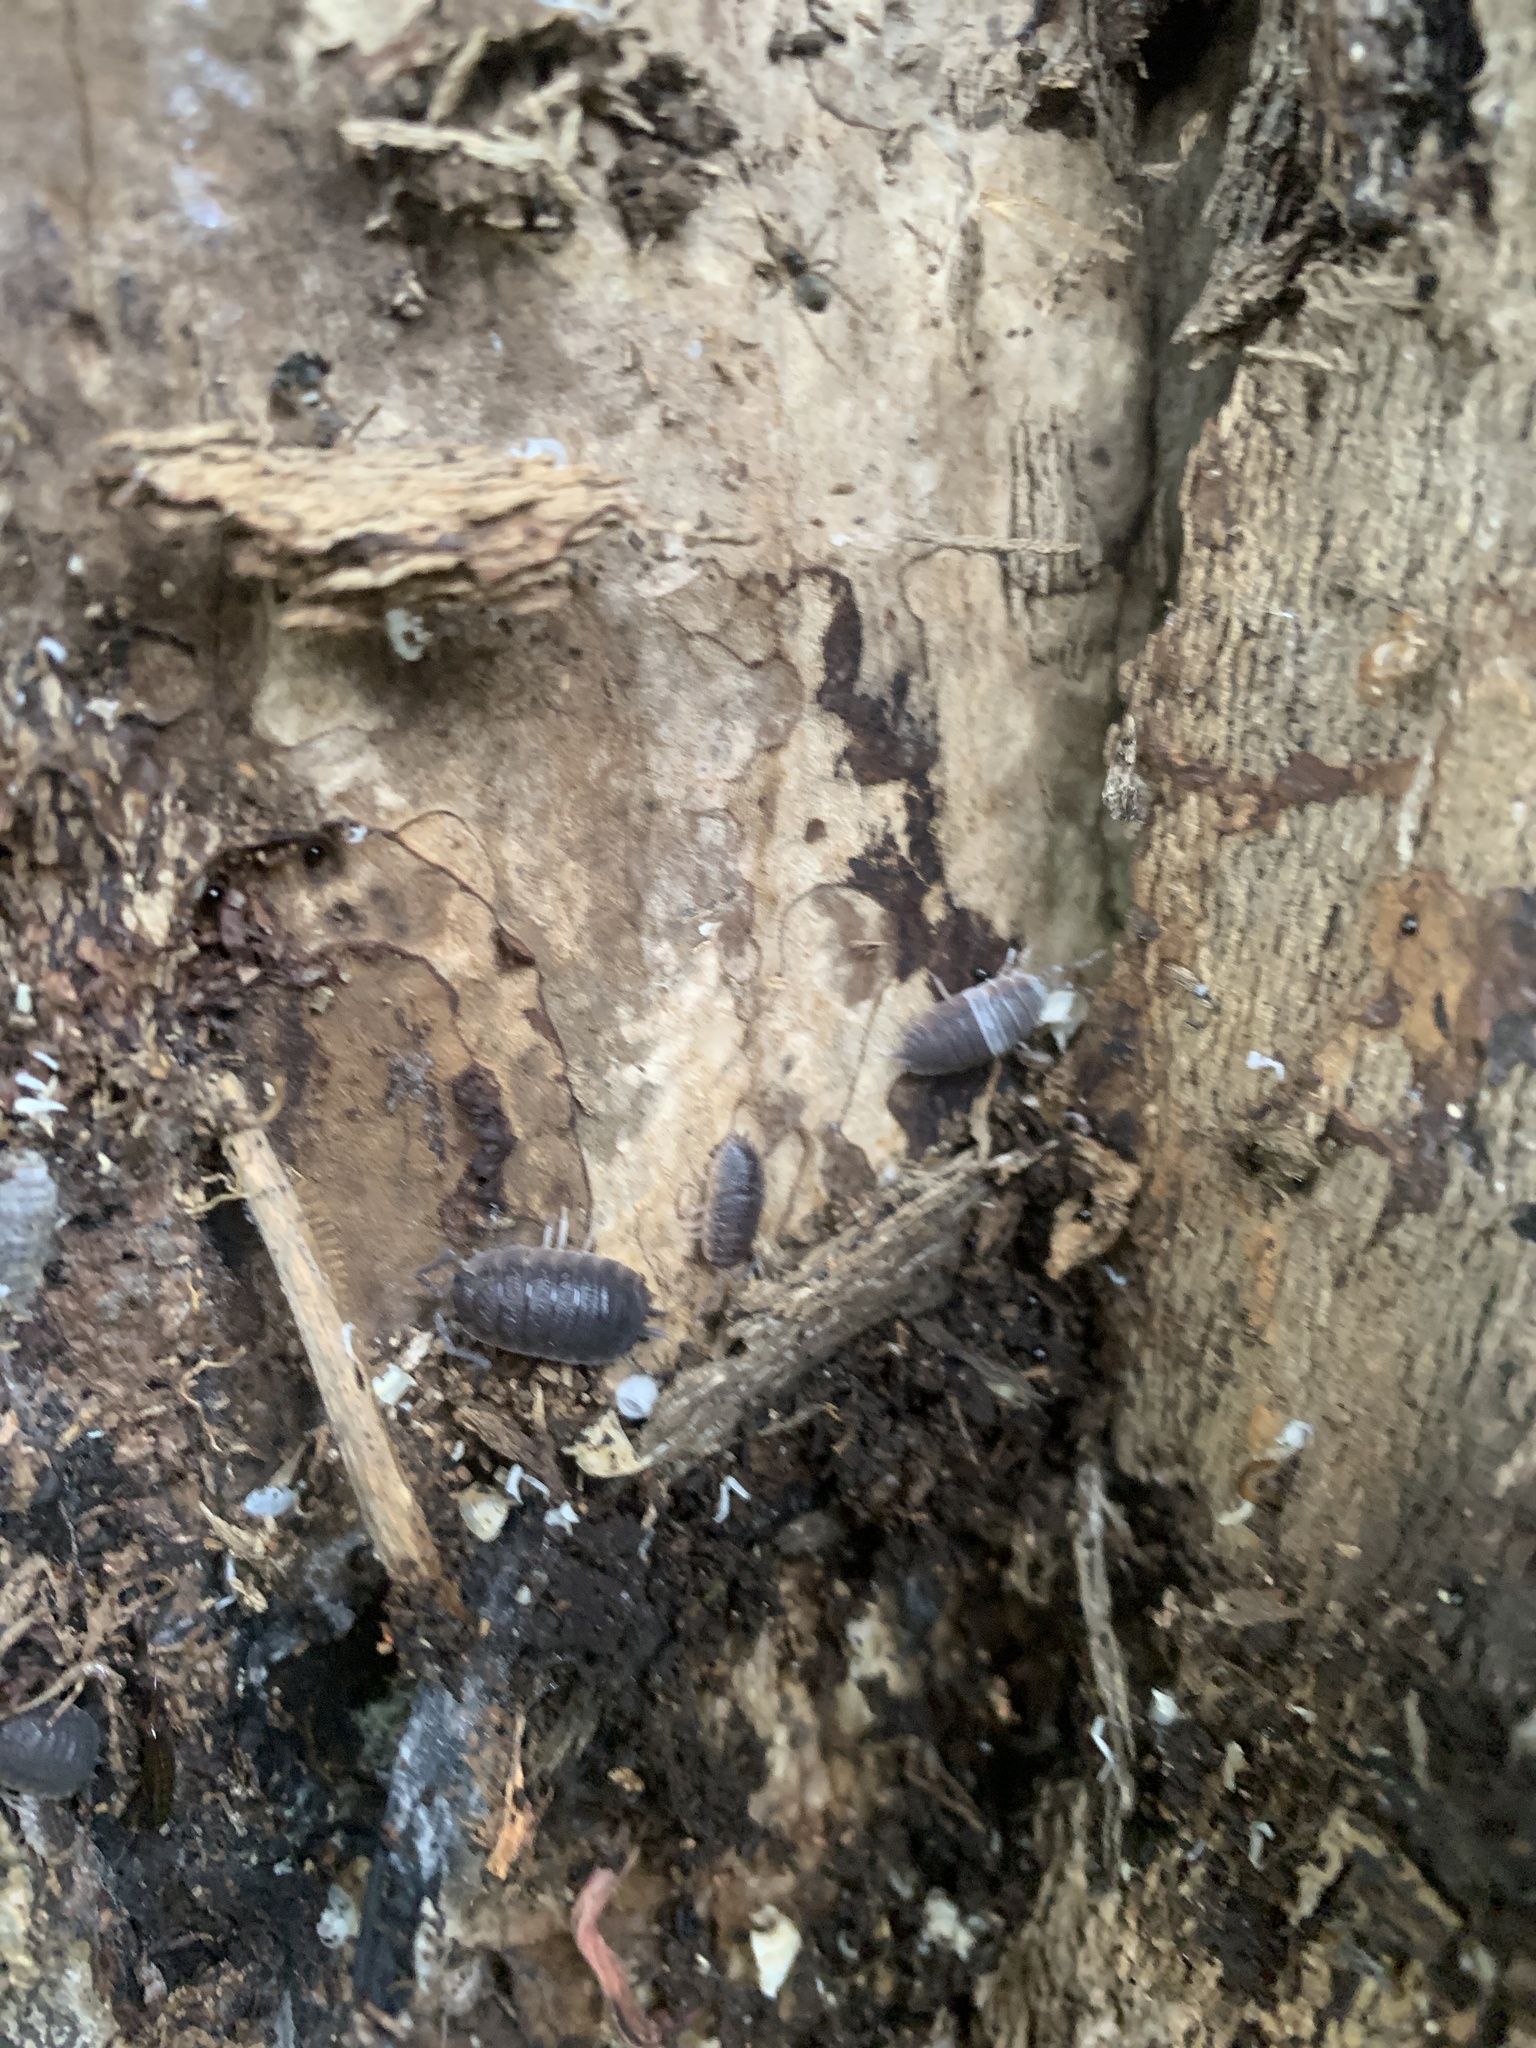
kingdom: Animalia
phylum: Arthropoda
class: Malacostraca
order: Isopoda
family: Porcellionidae
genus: Porcellio
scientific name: Porcellio scaber
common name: Common rough woodlouse
